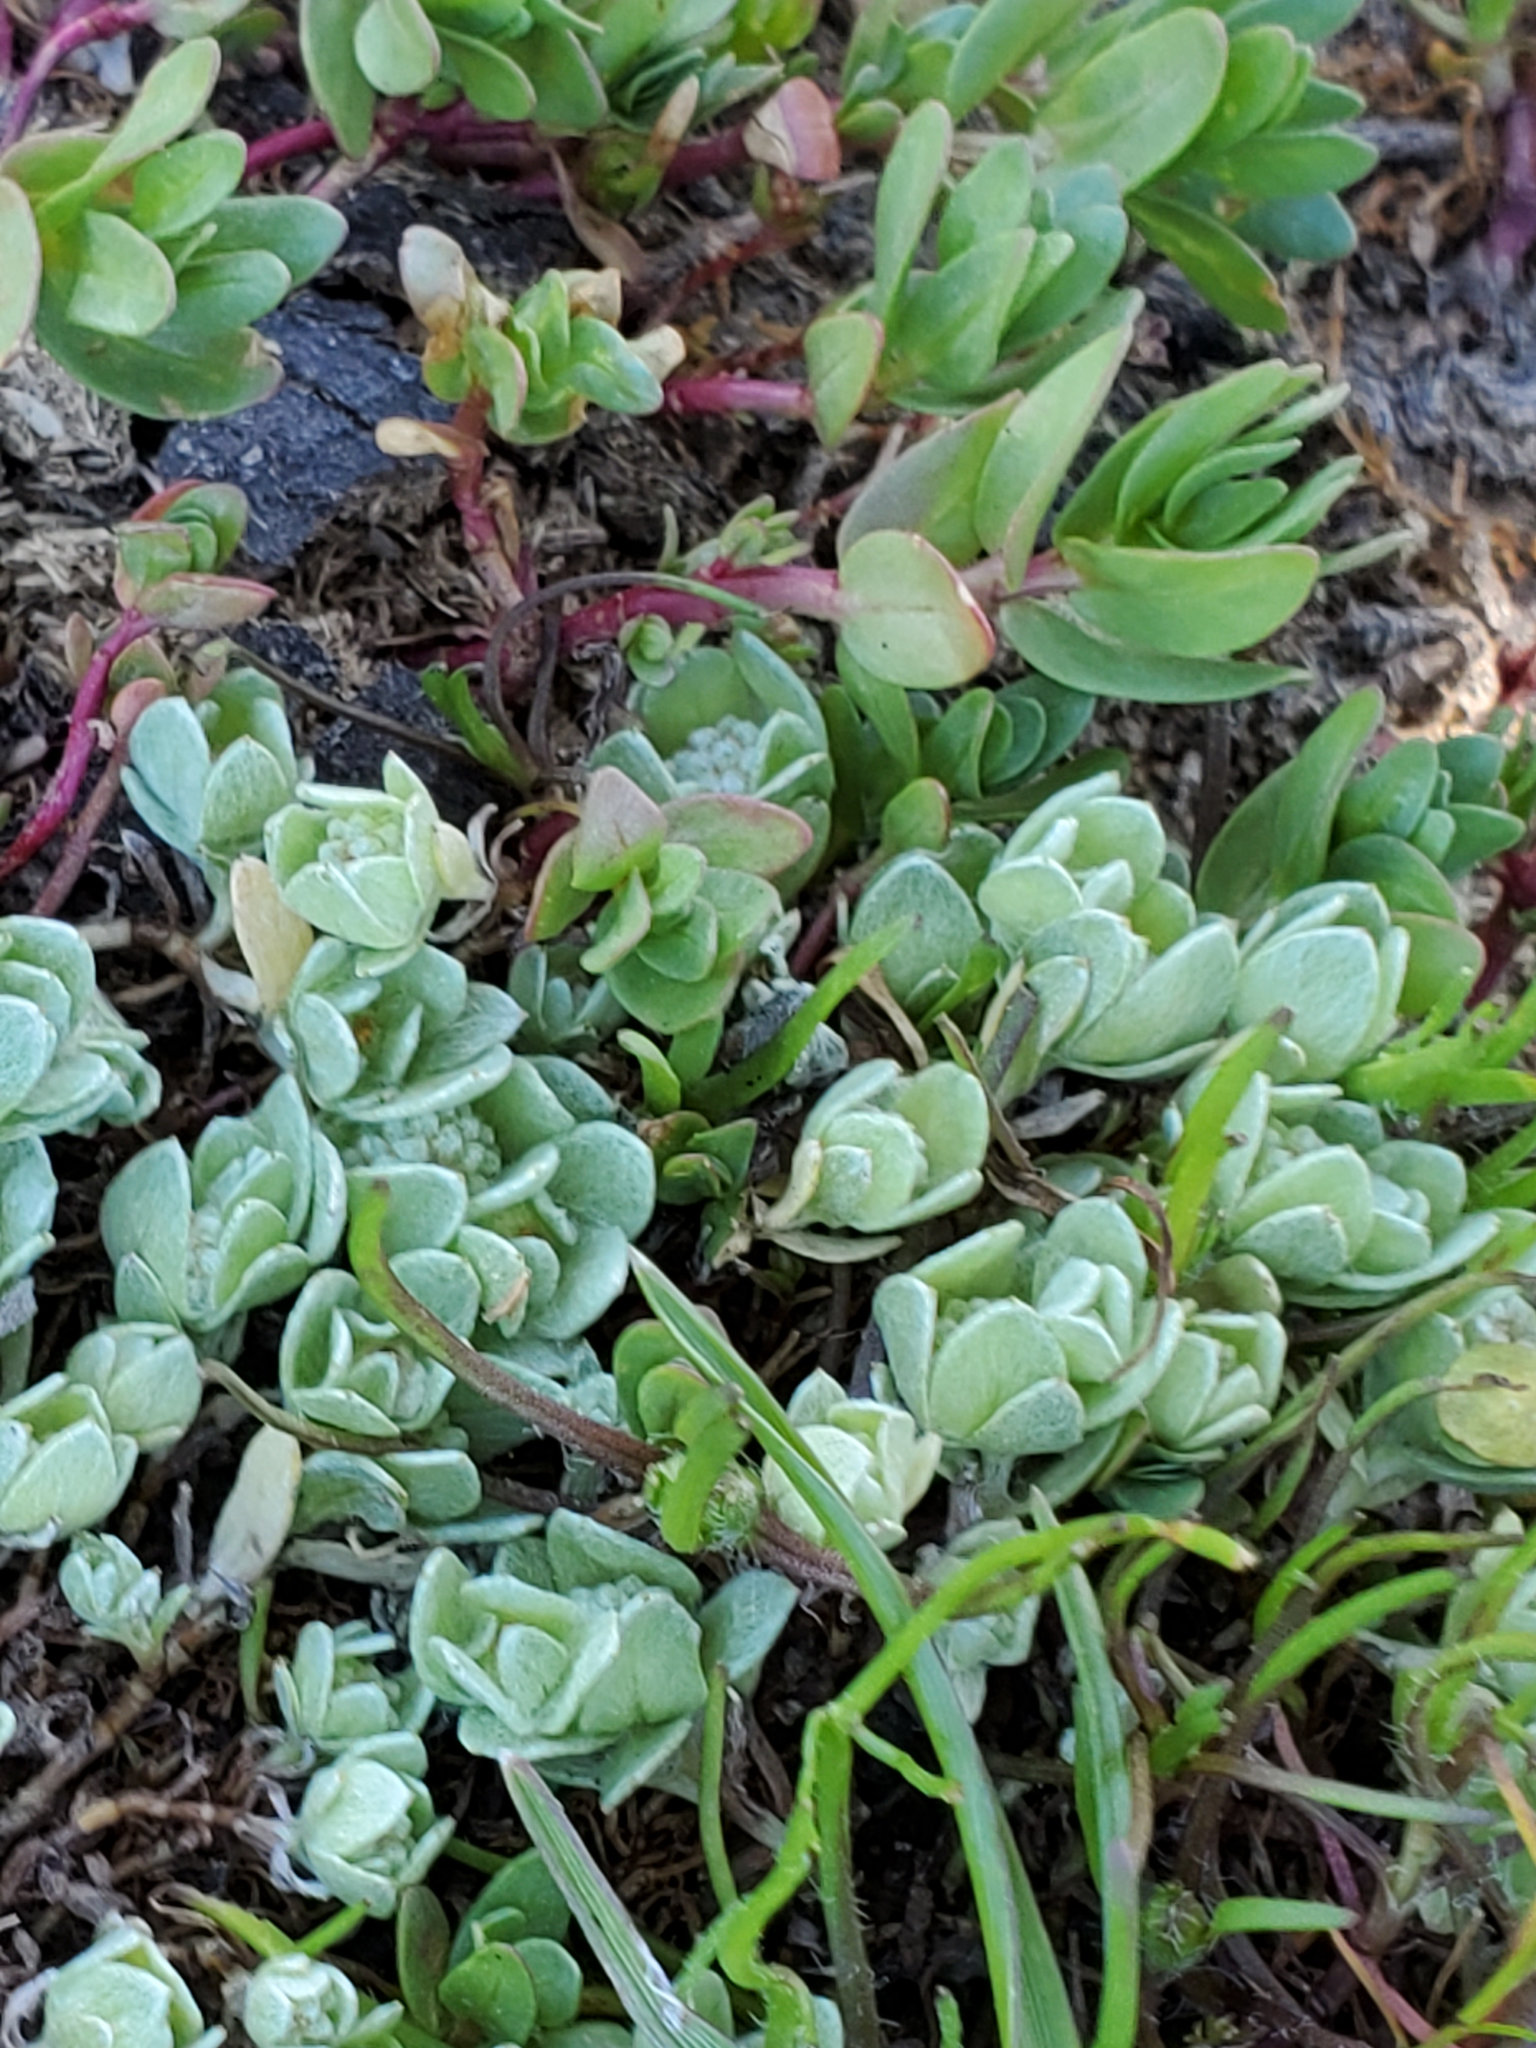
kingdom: Plantae
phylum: Tracheophyta
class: Magnoliopsida
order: Asterales
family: Asteraceae
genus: Psilocarphus
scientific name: Psilocarphus brevissimus
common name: Dwarf woollyheads
